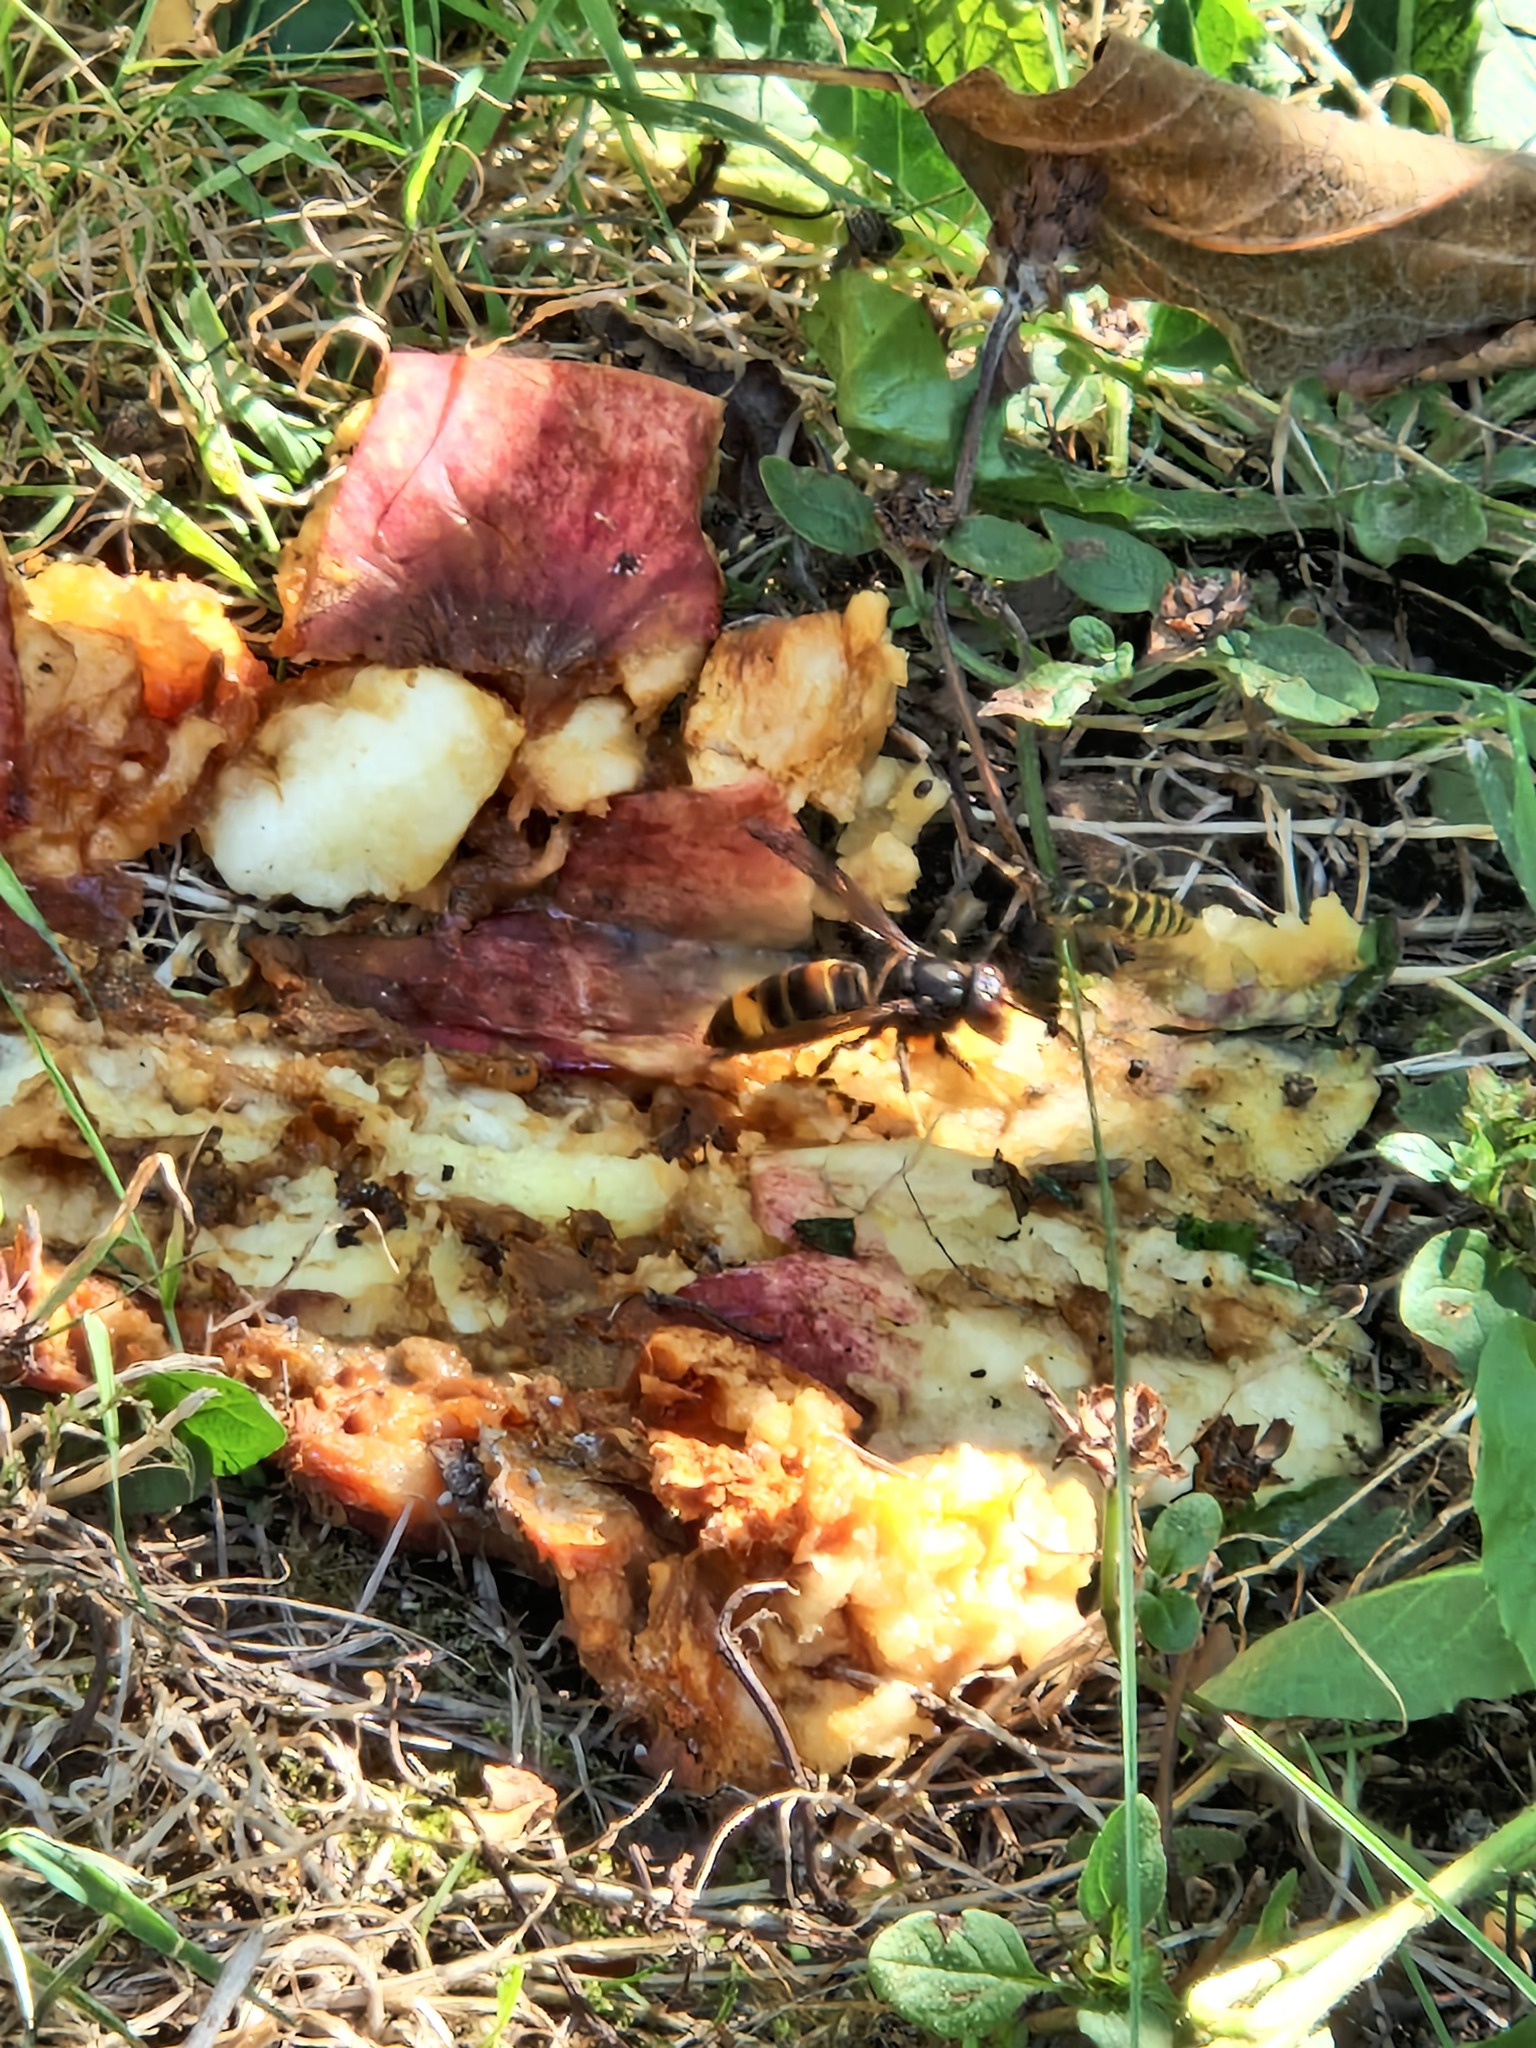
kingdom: Animalia
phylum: Arthropoda
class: Insecta
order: Hymenoptera
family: Vespidae
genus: Vespa
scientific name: Vespa velutina
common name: Asian hornet
